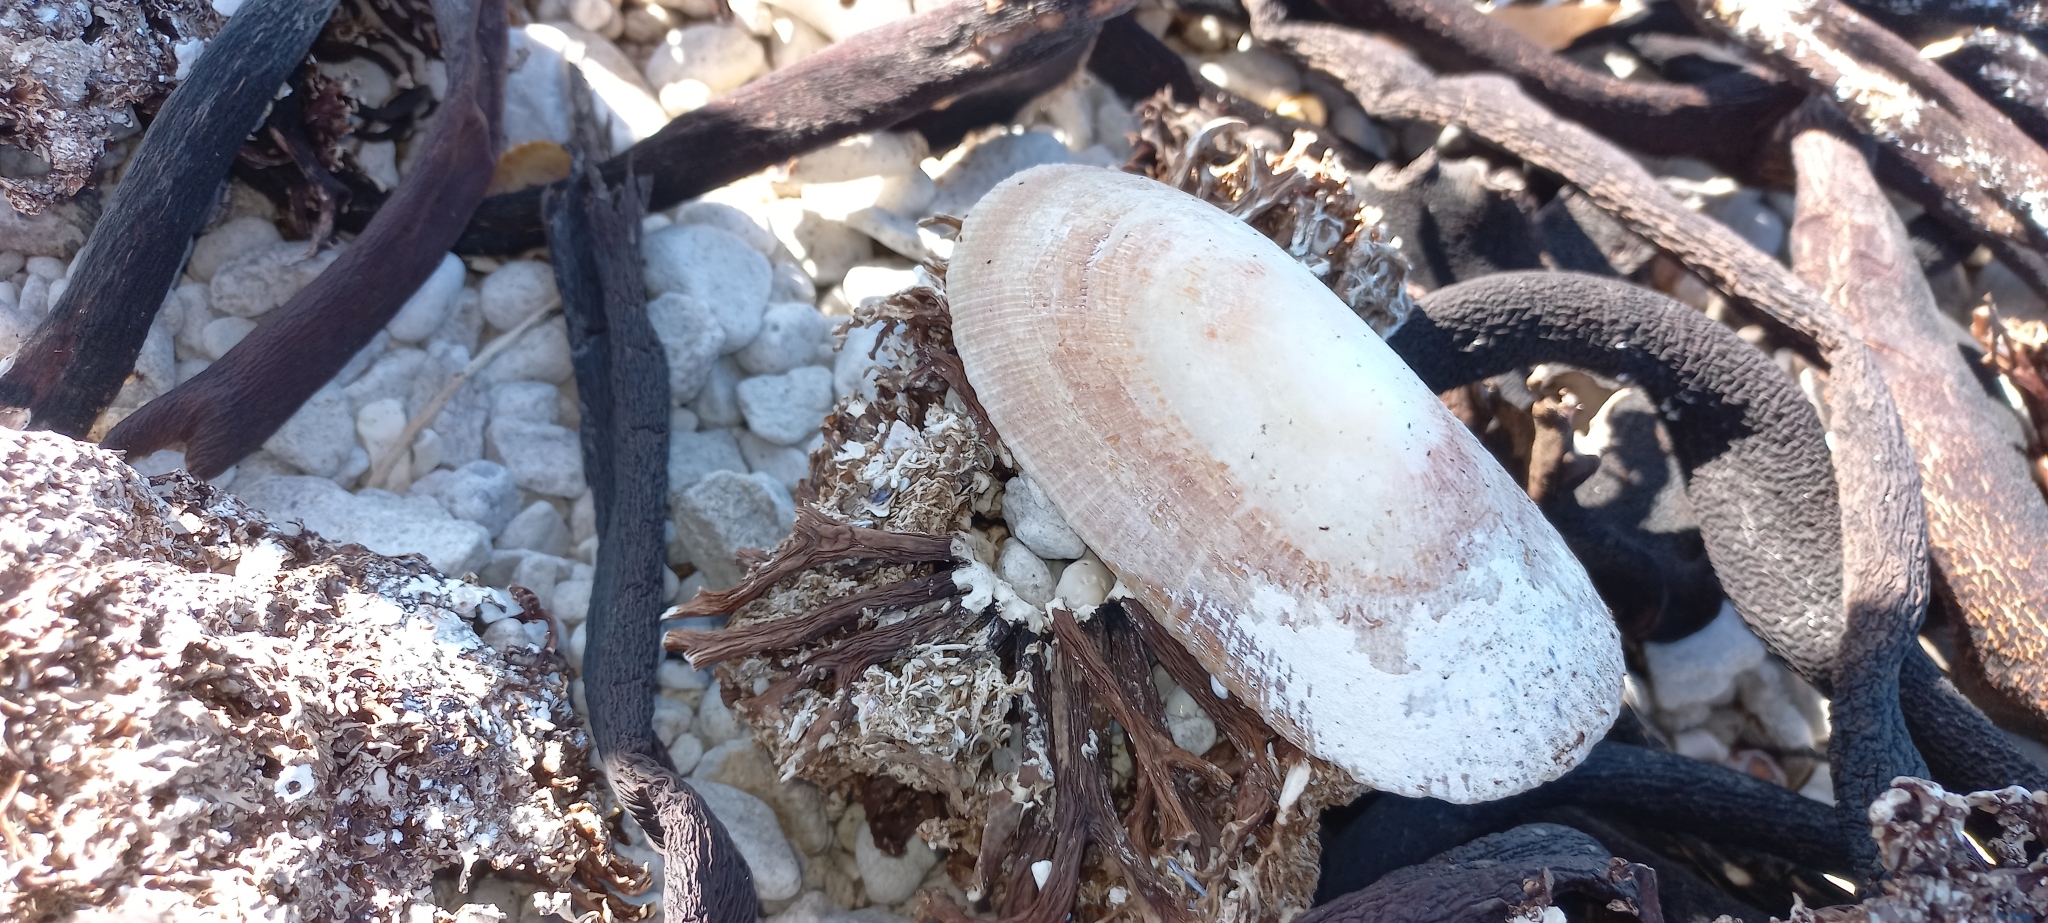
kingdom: Animalia
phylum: Mollusca
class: Gastropoda
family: Patellidae
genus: Cymbula
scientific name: Cymbula compressa
